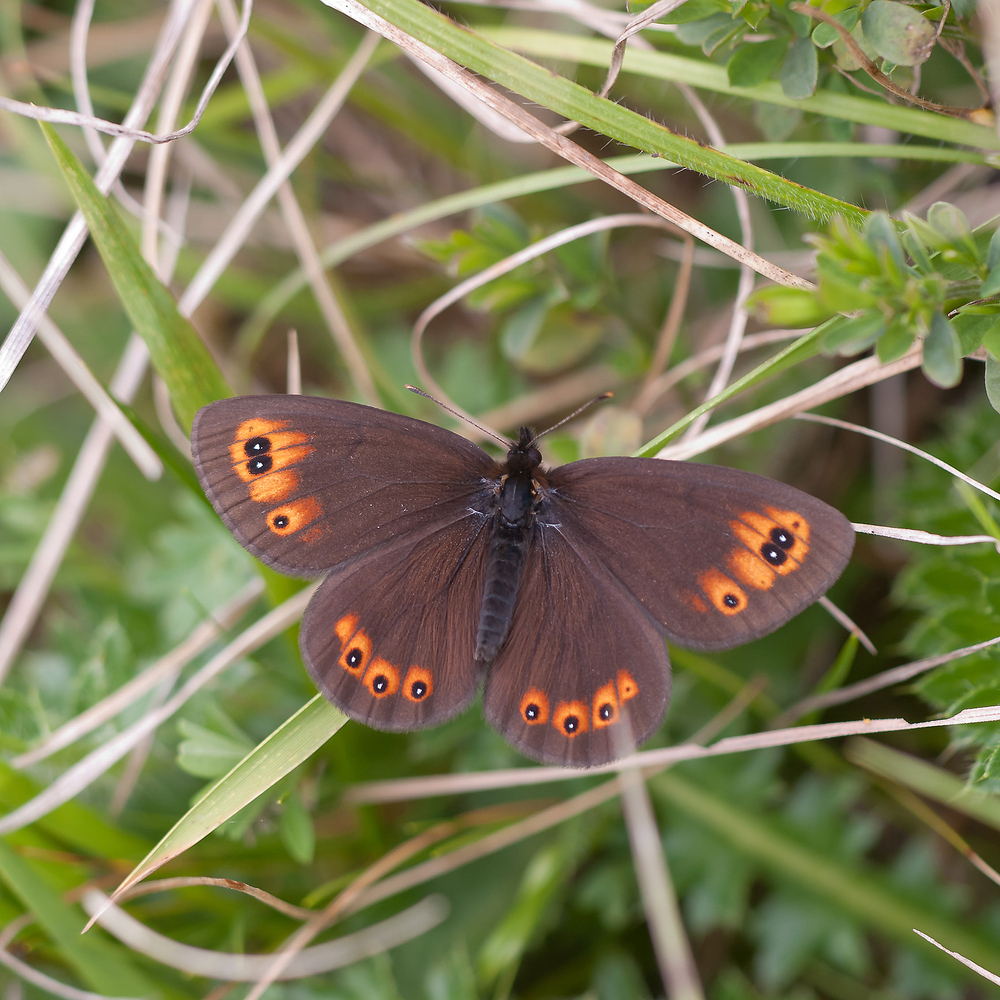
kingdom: Animalia
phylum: Arthropoda
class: Insecta
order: Lepidoptera
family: Nymphalidae
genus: Erebia
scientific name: Erebia medusa
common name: Woodland ringlet
